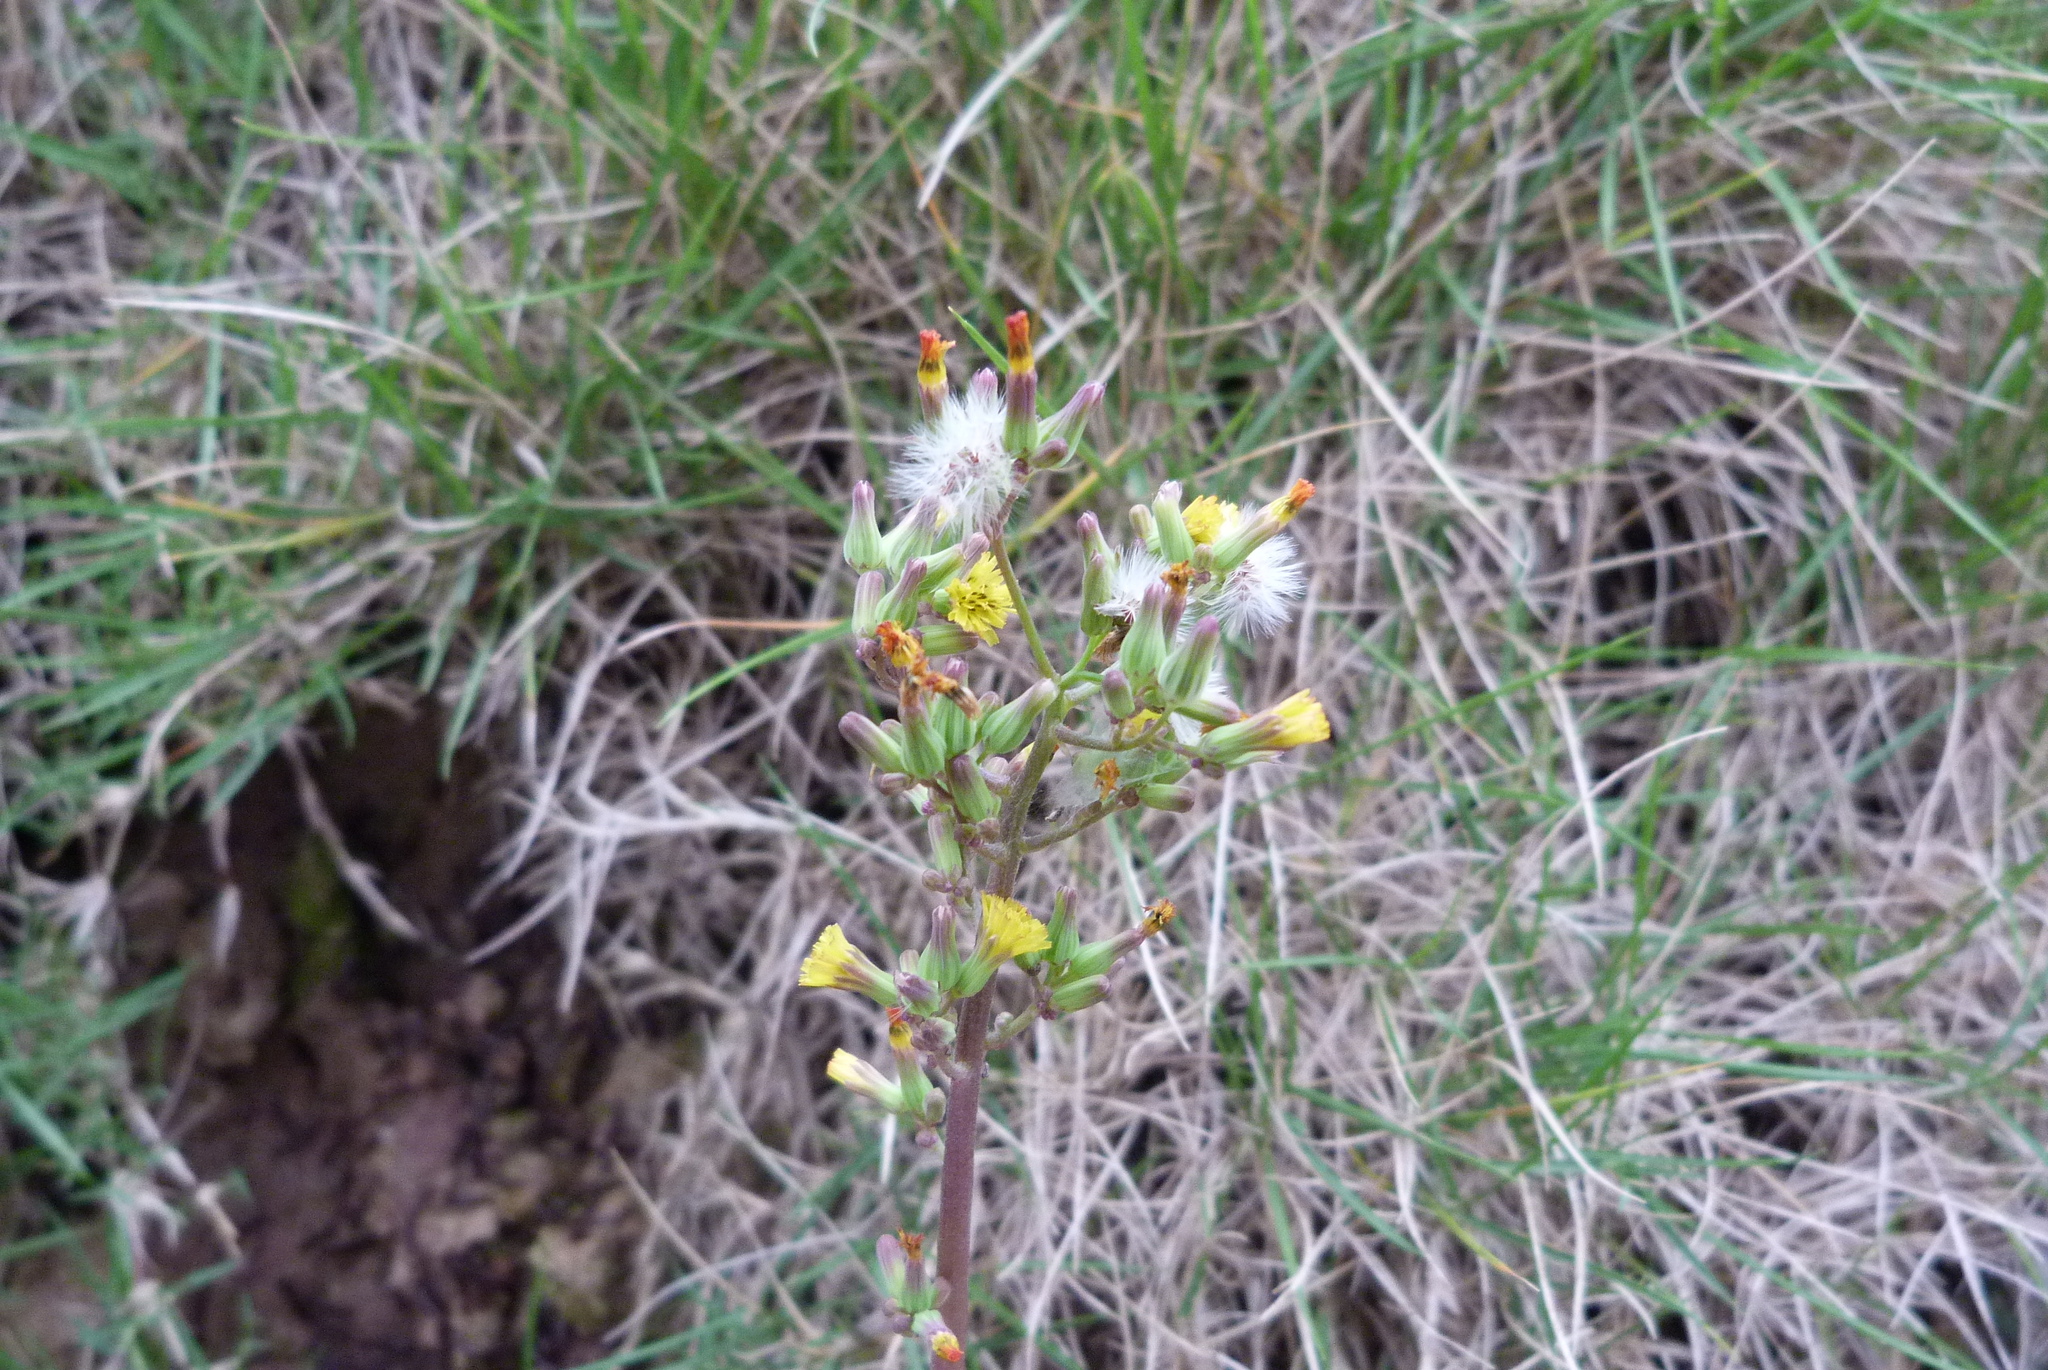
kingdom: Plantae
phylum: Tracheophyta
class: Magnoliopsida
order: Asterales
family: Asteraceae
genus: Youngia
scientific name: Youngia japonica
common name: Oriental false hawksbeard
